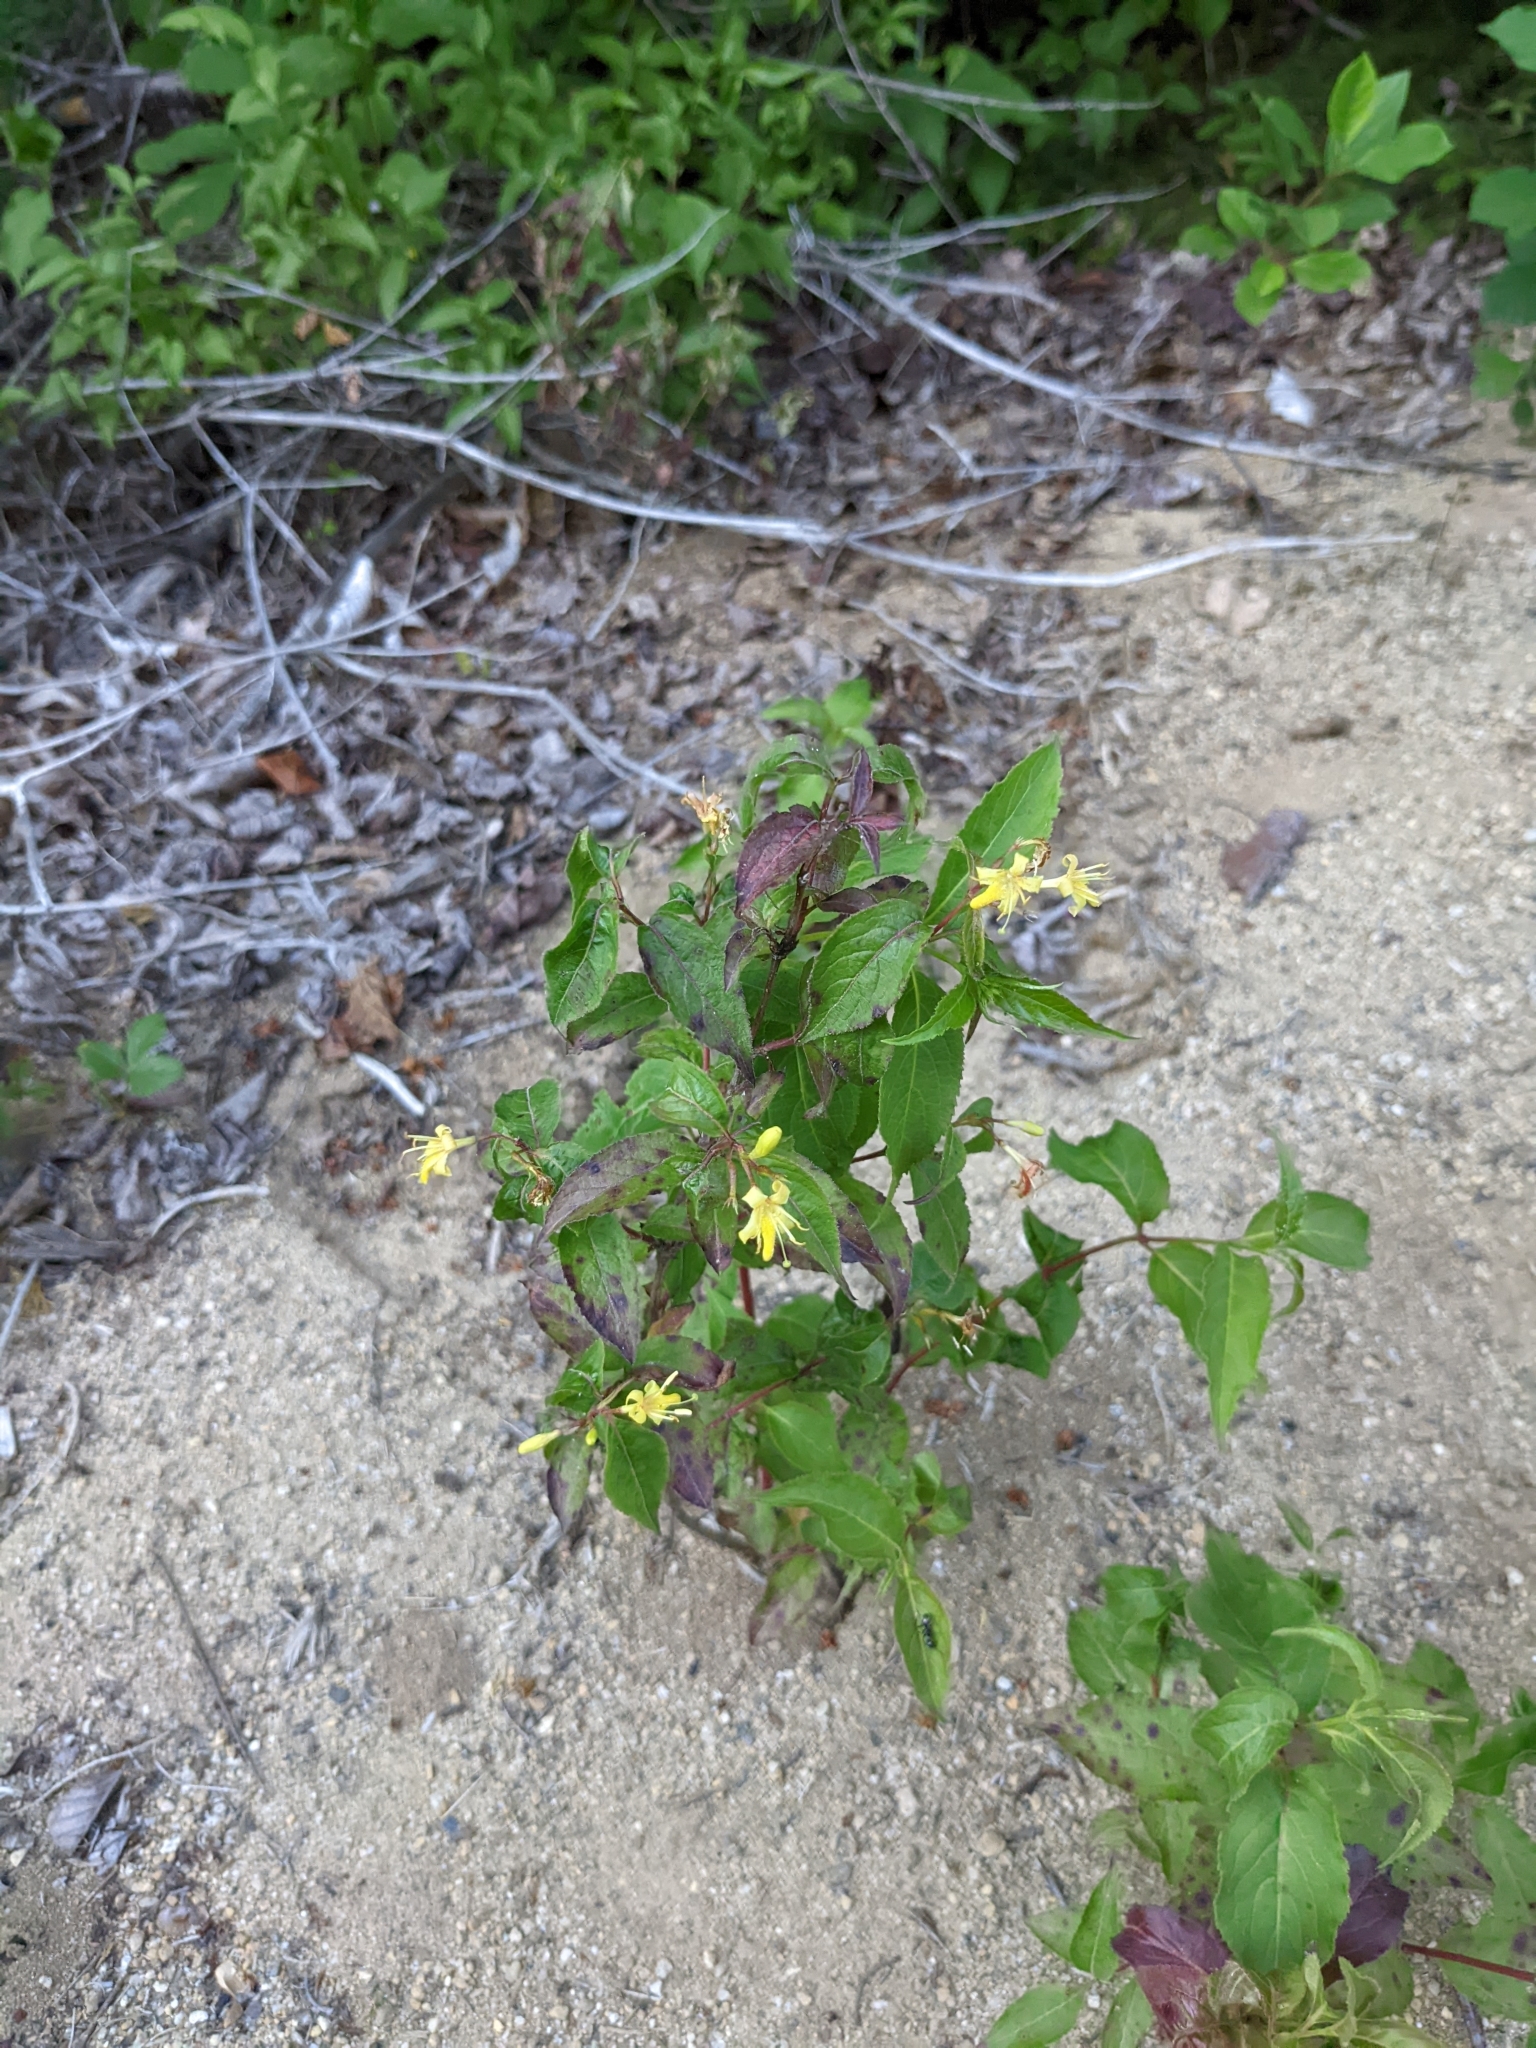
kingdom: Plantae
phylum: Tracheophyta
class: Magnoliopsida
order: Dipsacales
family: Caprifoliaceae
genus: Diervilla
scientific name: Diervilla lonicera
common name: Bush-honeysuckle
